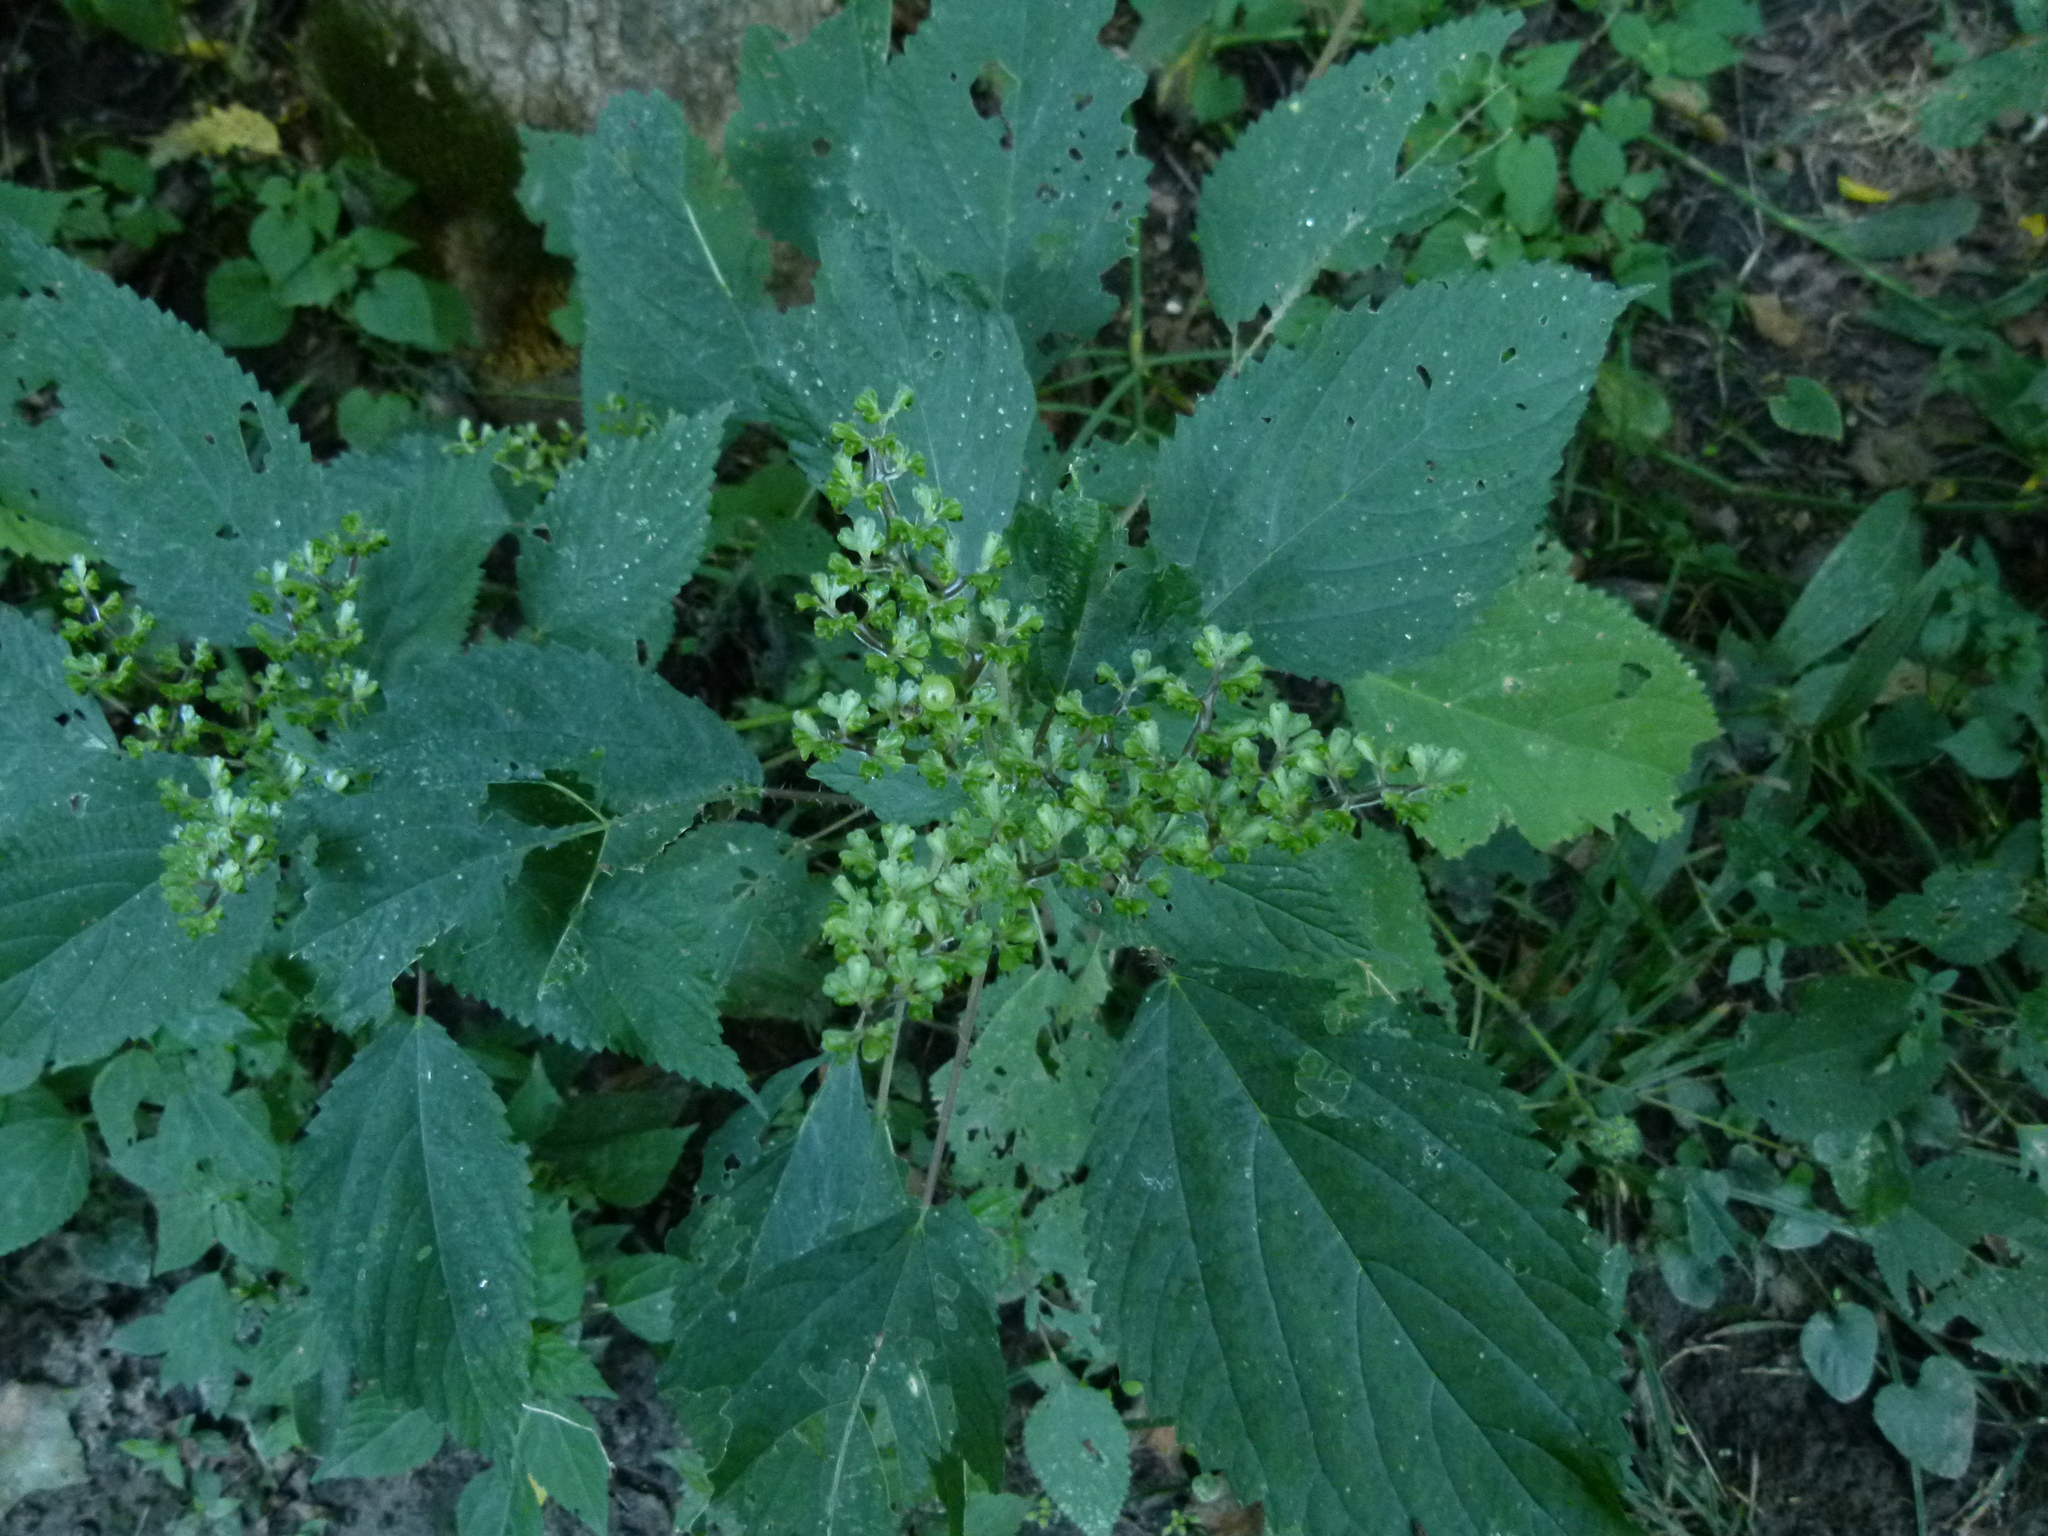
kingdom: Plantae
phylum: Tracheophyta
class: Magnoliopsida
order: Rosales
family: Urticaceae
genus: Laportea
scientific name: Laportea canadensis
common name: Canada nettle
